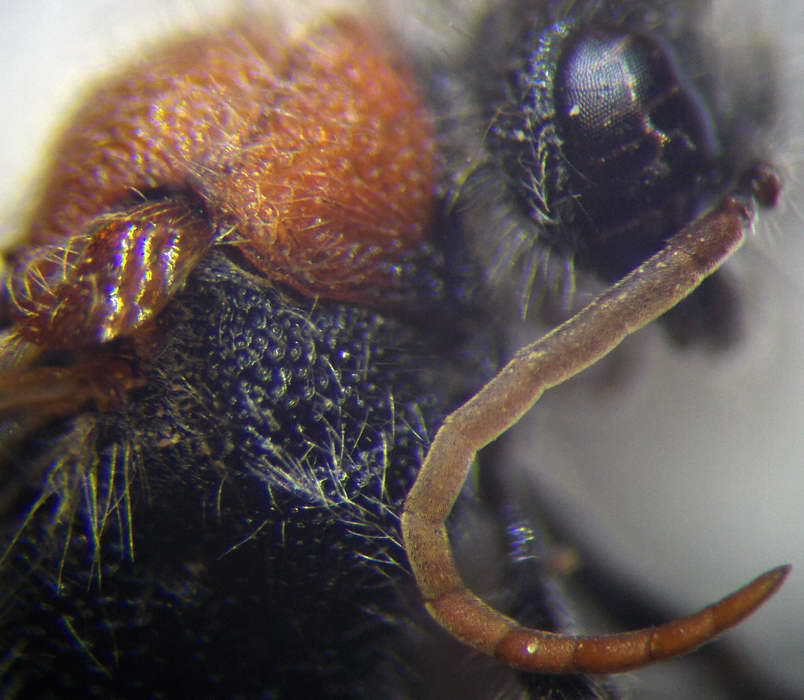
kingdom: Animalia
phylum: Arthropoda
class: Insecta
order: Hymenoptera
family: Mutillidae
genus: Smicromyrme
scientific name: Smicromyrme rufipes
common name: Small velvet ant
